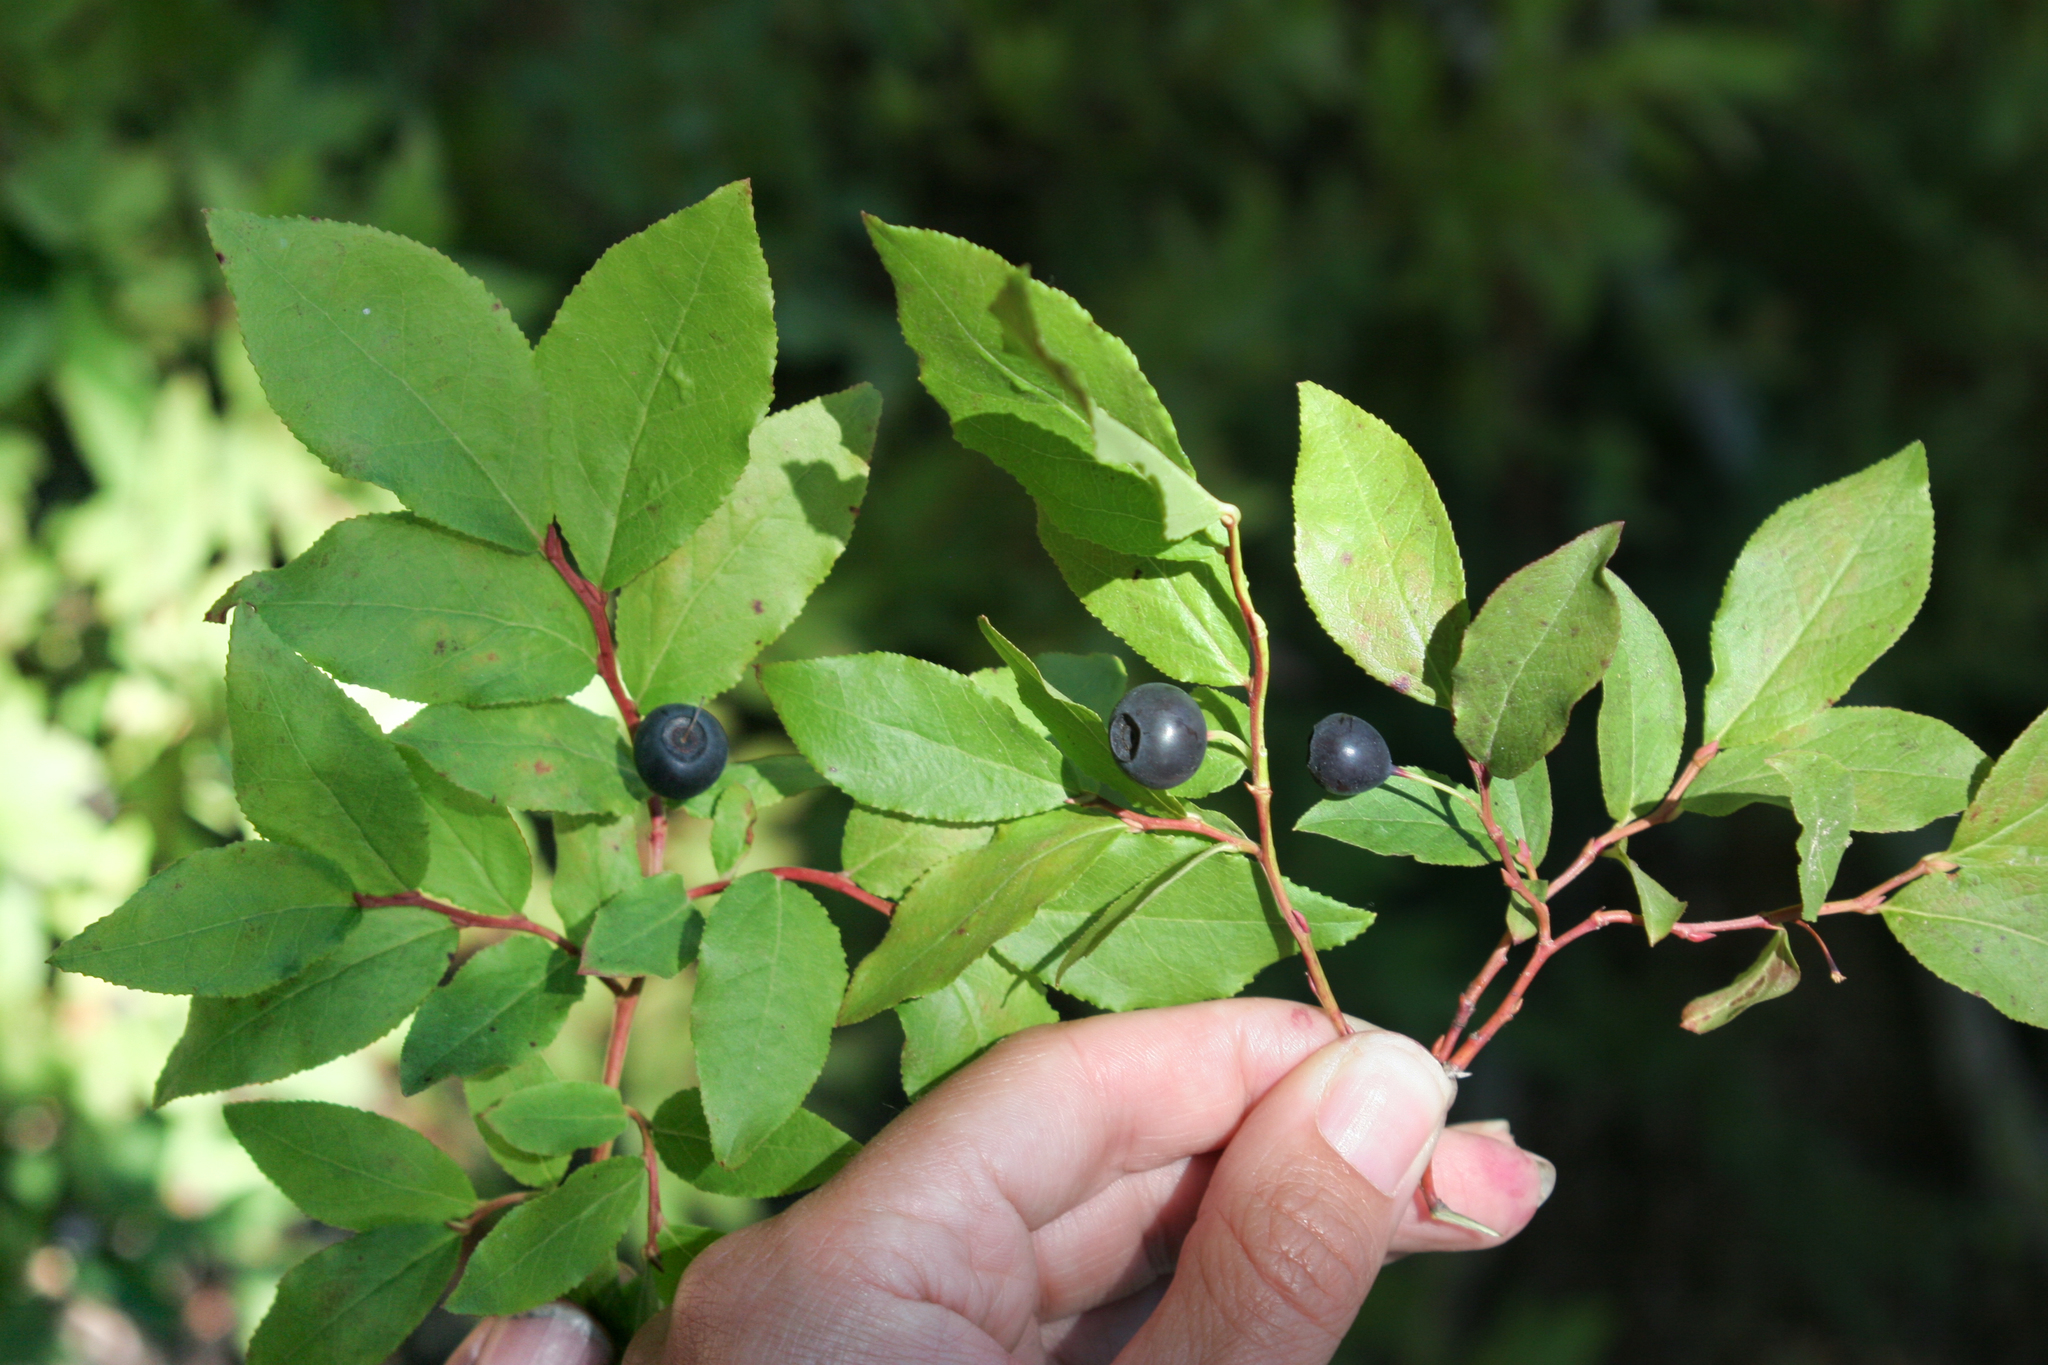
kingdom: Plantae
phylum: Tracheophyta
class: Magnoliopsida
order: Ericales
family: Ericaceae
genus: Vaccinium
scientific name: Vaccinium membranaceum
